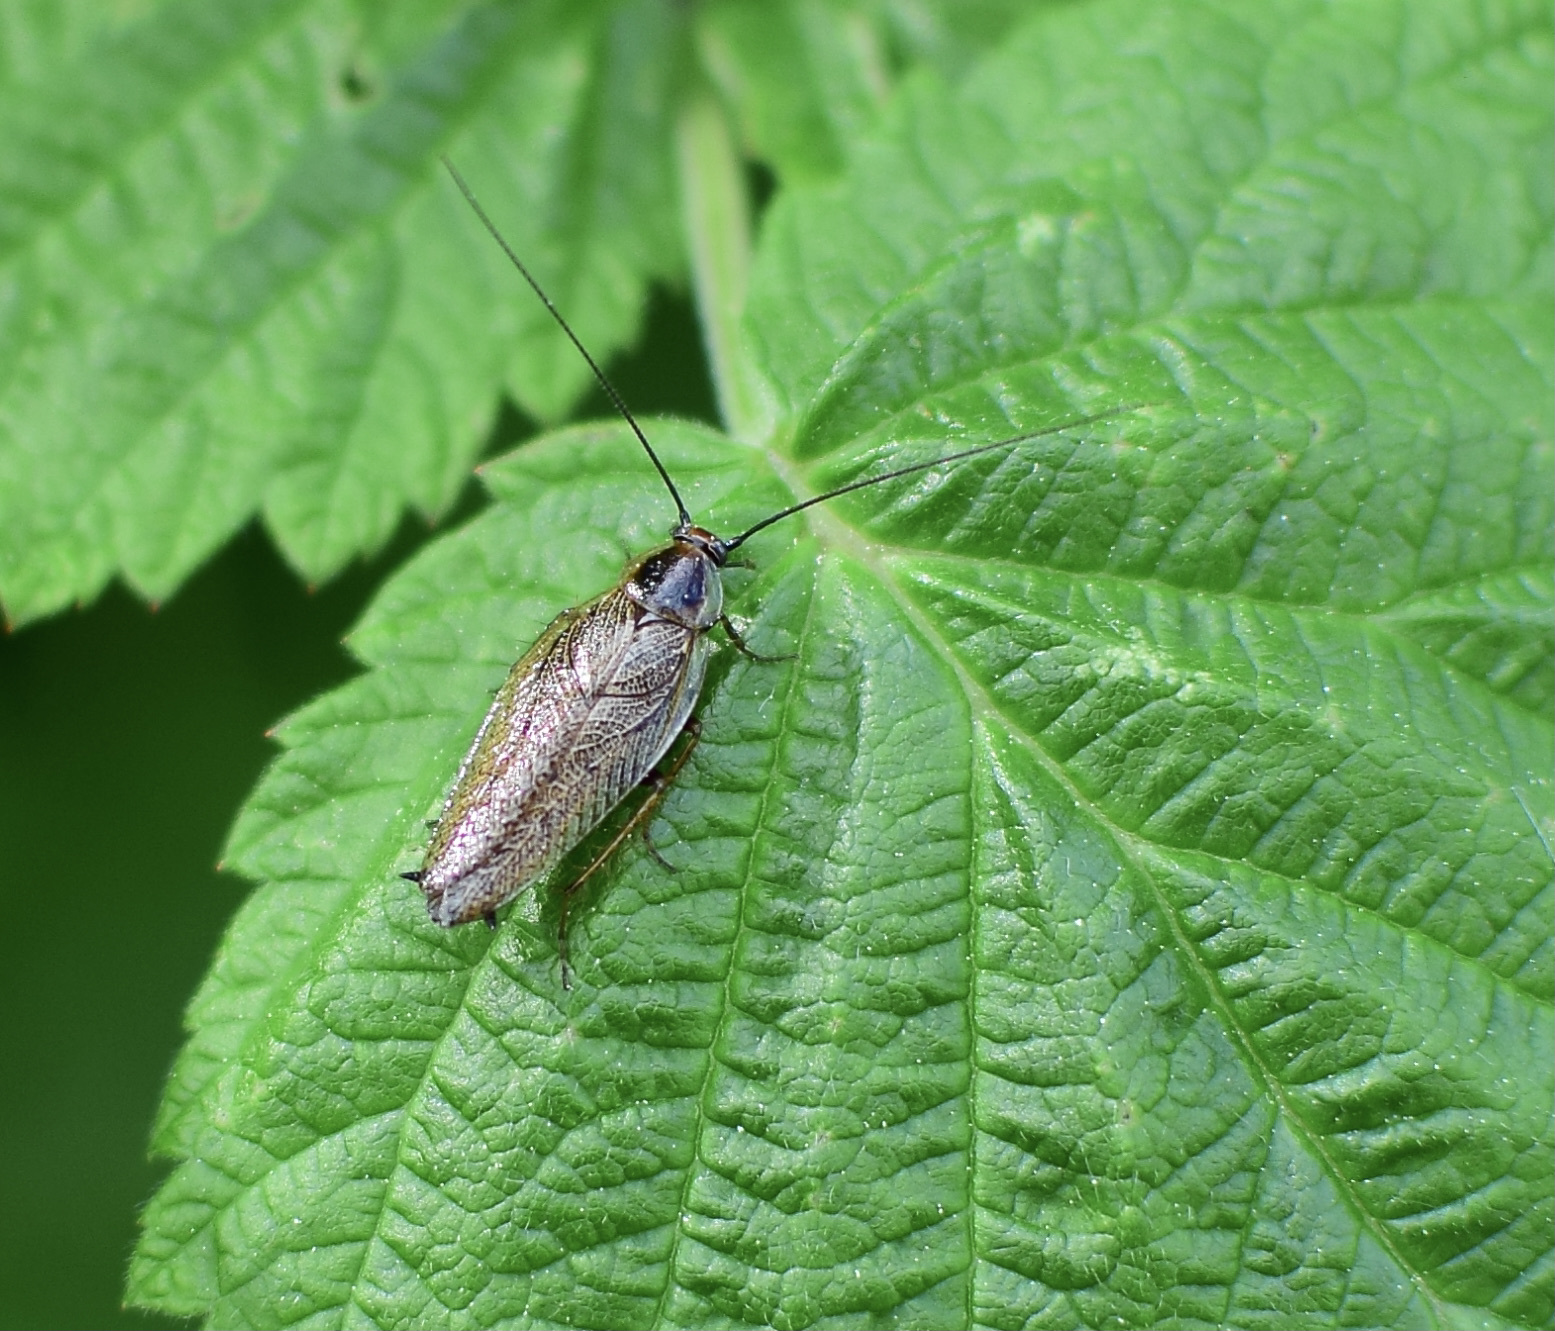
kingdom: Animalia
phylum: Arthropoda
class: Insecta
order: Blattodea
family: Ectobiidae
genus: Ectobius
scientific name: Ectobius lapponicus
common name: Dusky cockroach
